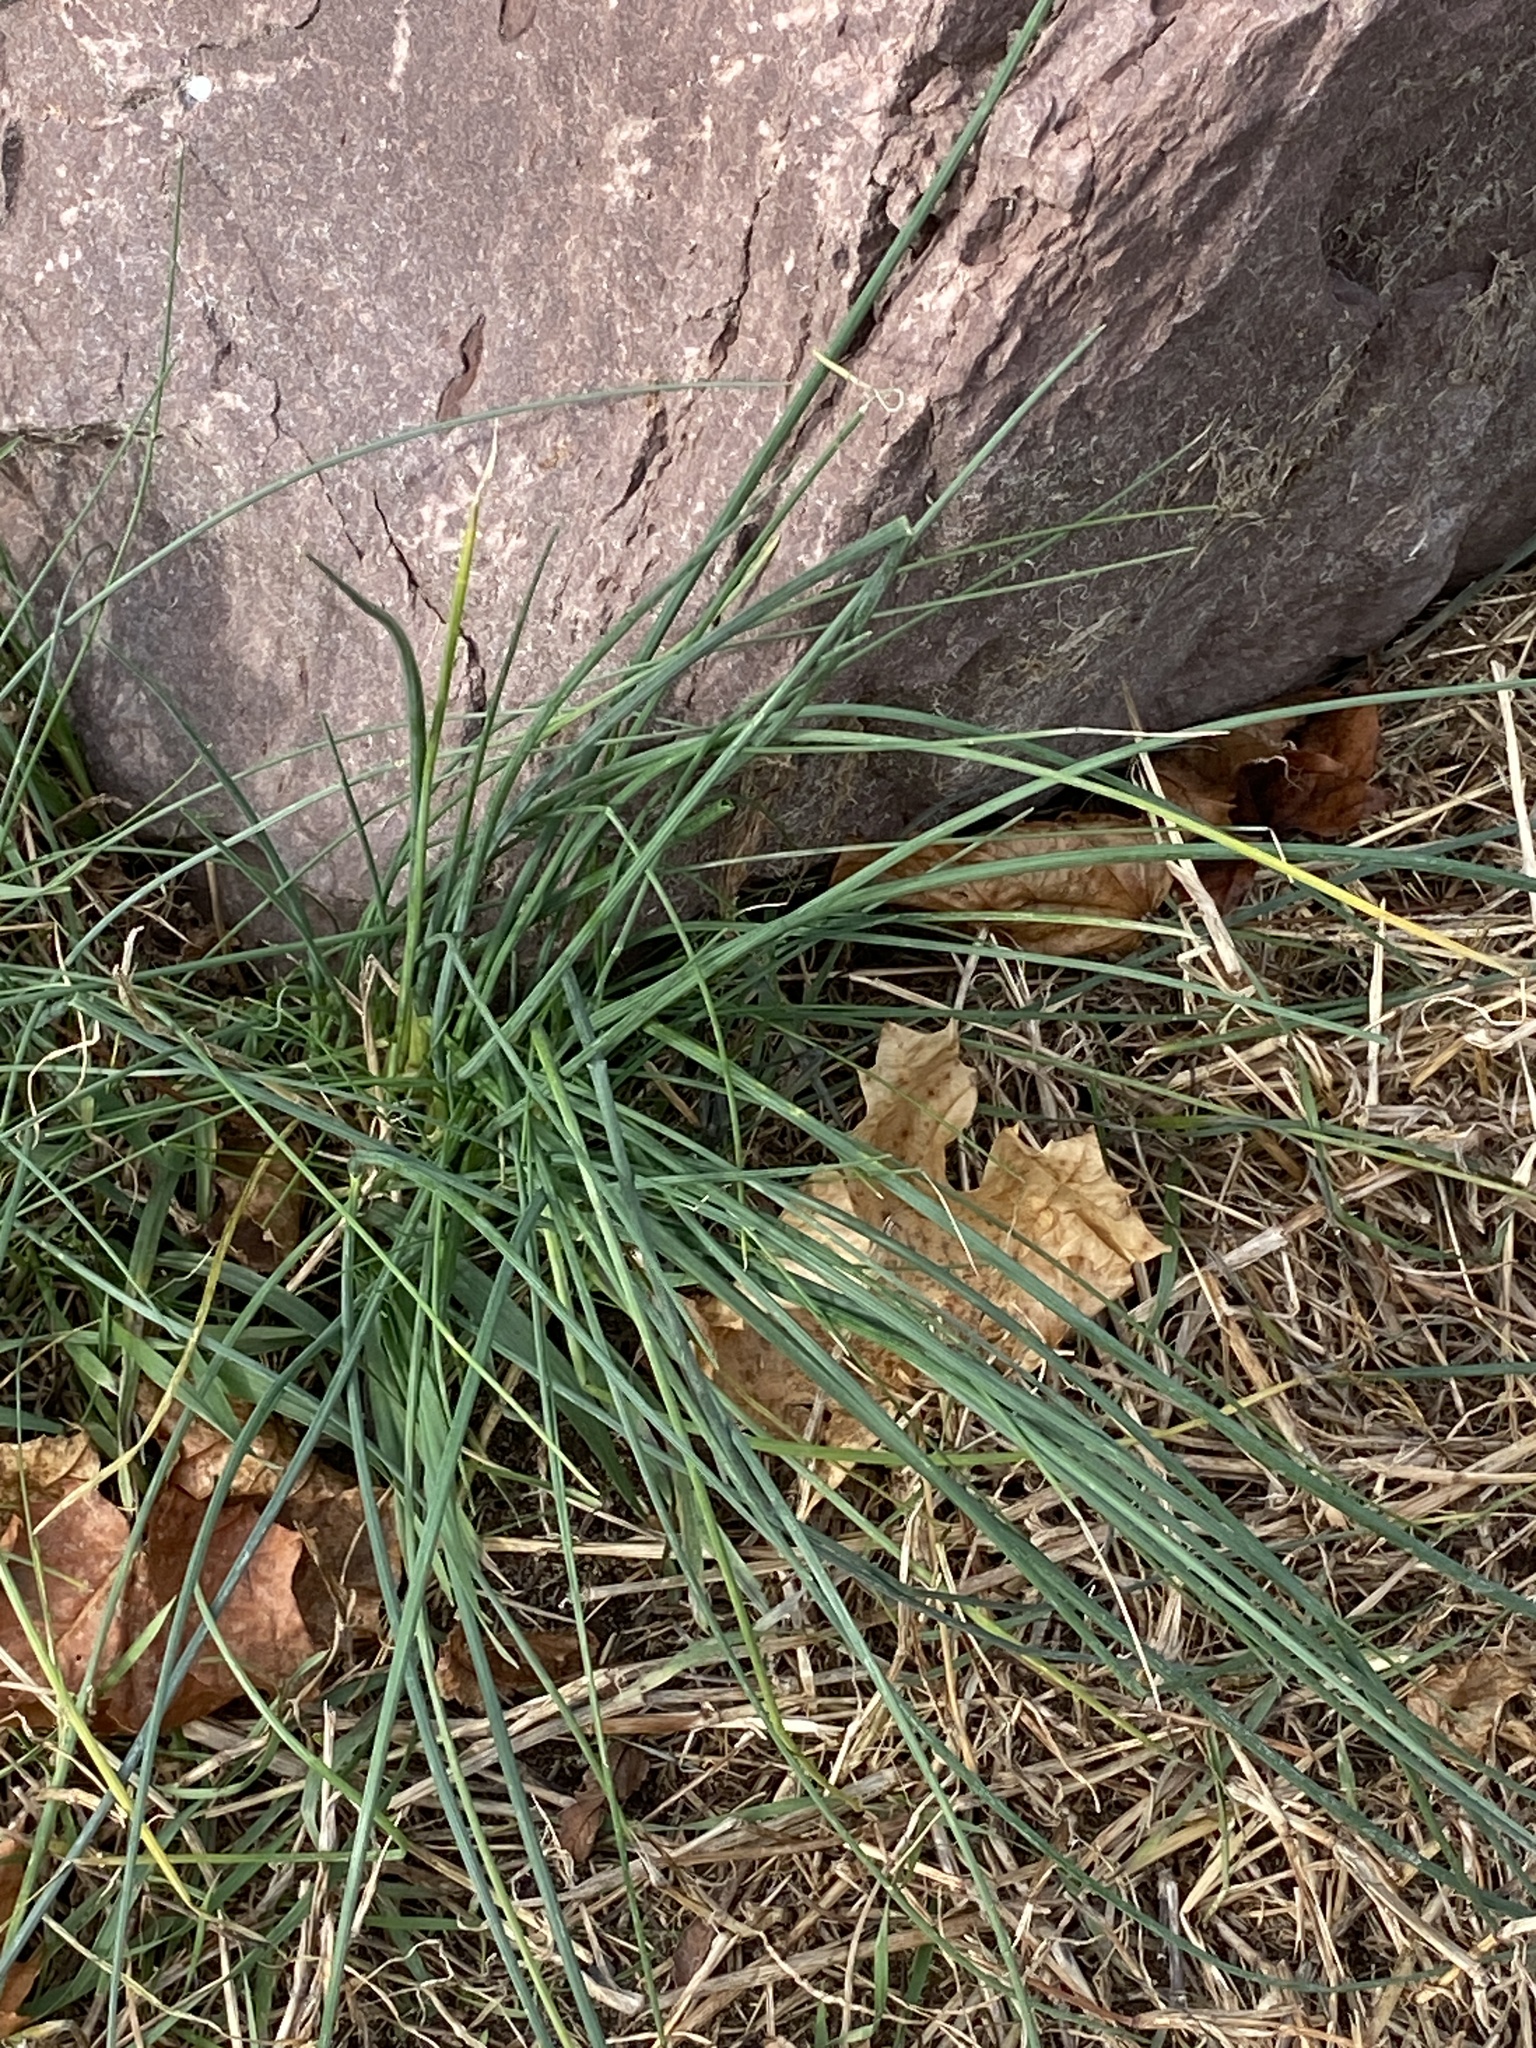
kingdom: Plantae
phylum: Tracheophyta
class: Liliopsida
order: Asparagales
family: Amaryllidaceae
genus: Allium
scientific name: Allium vineale
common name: Crow garlic
